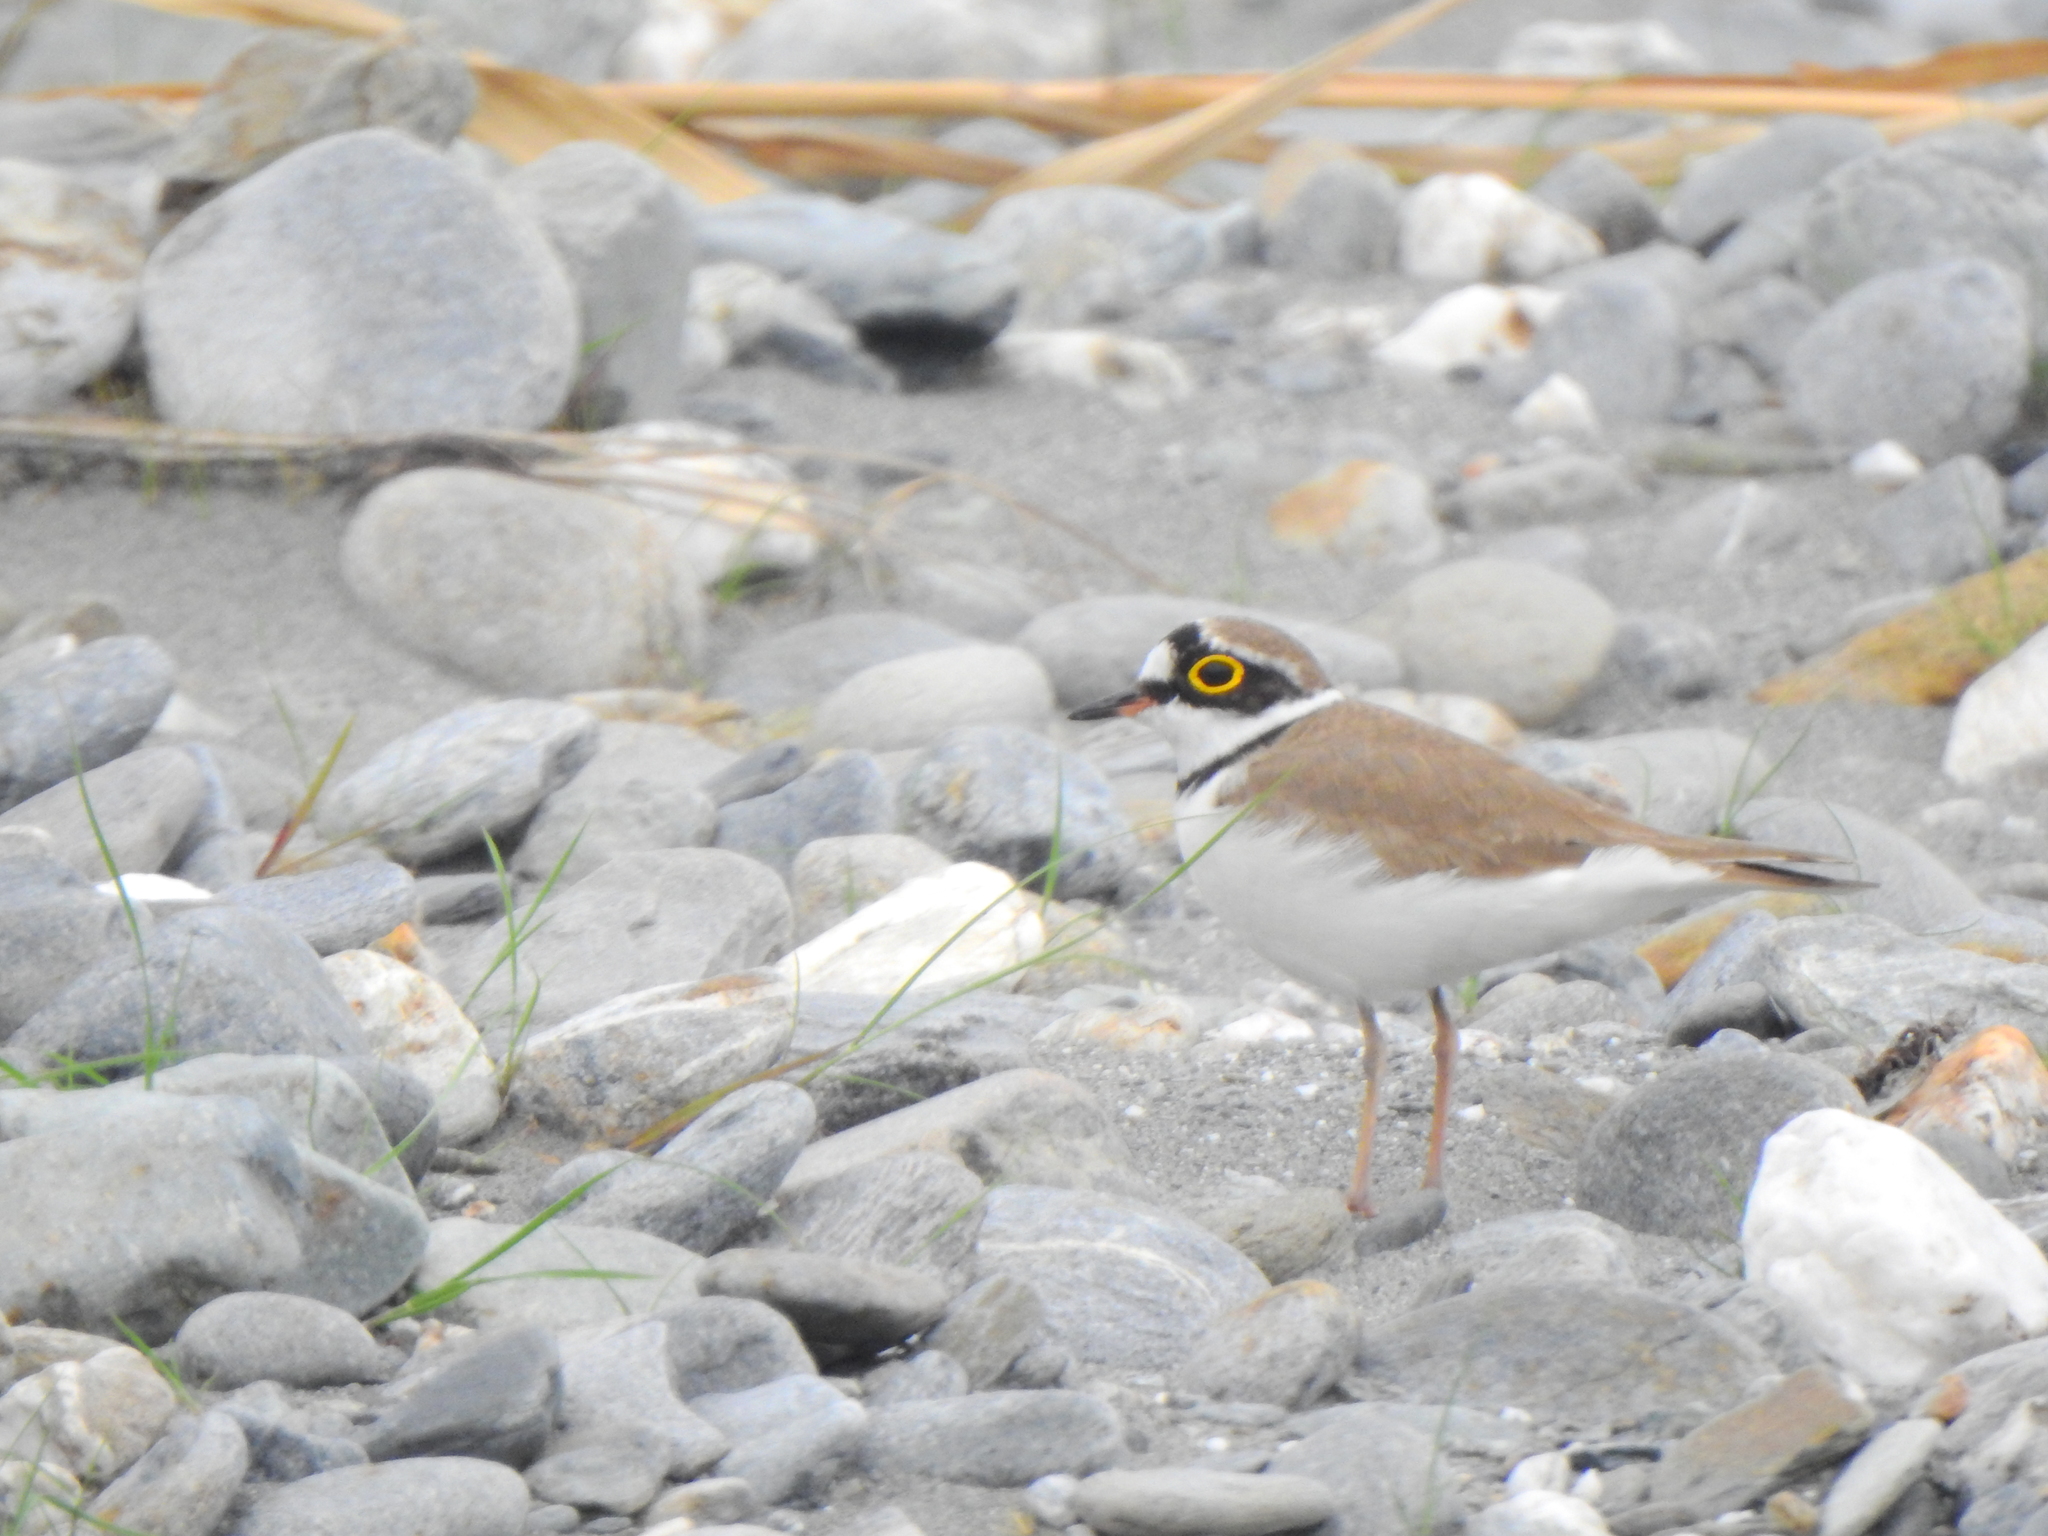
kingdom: Animalia
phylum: Chordata
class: Aves
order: Charadriiformes
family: Charadriidae
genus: Charadrius
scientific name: Charadrius dubius
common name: Little ringed plover
